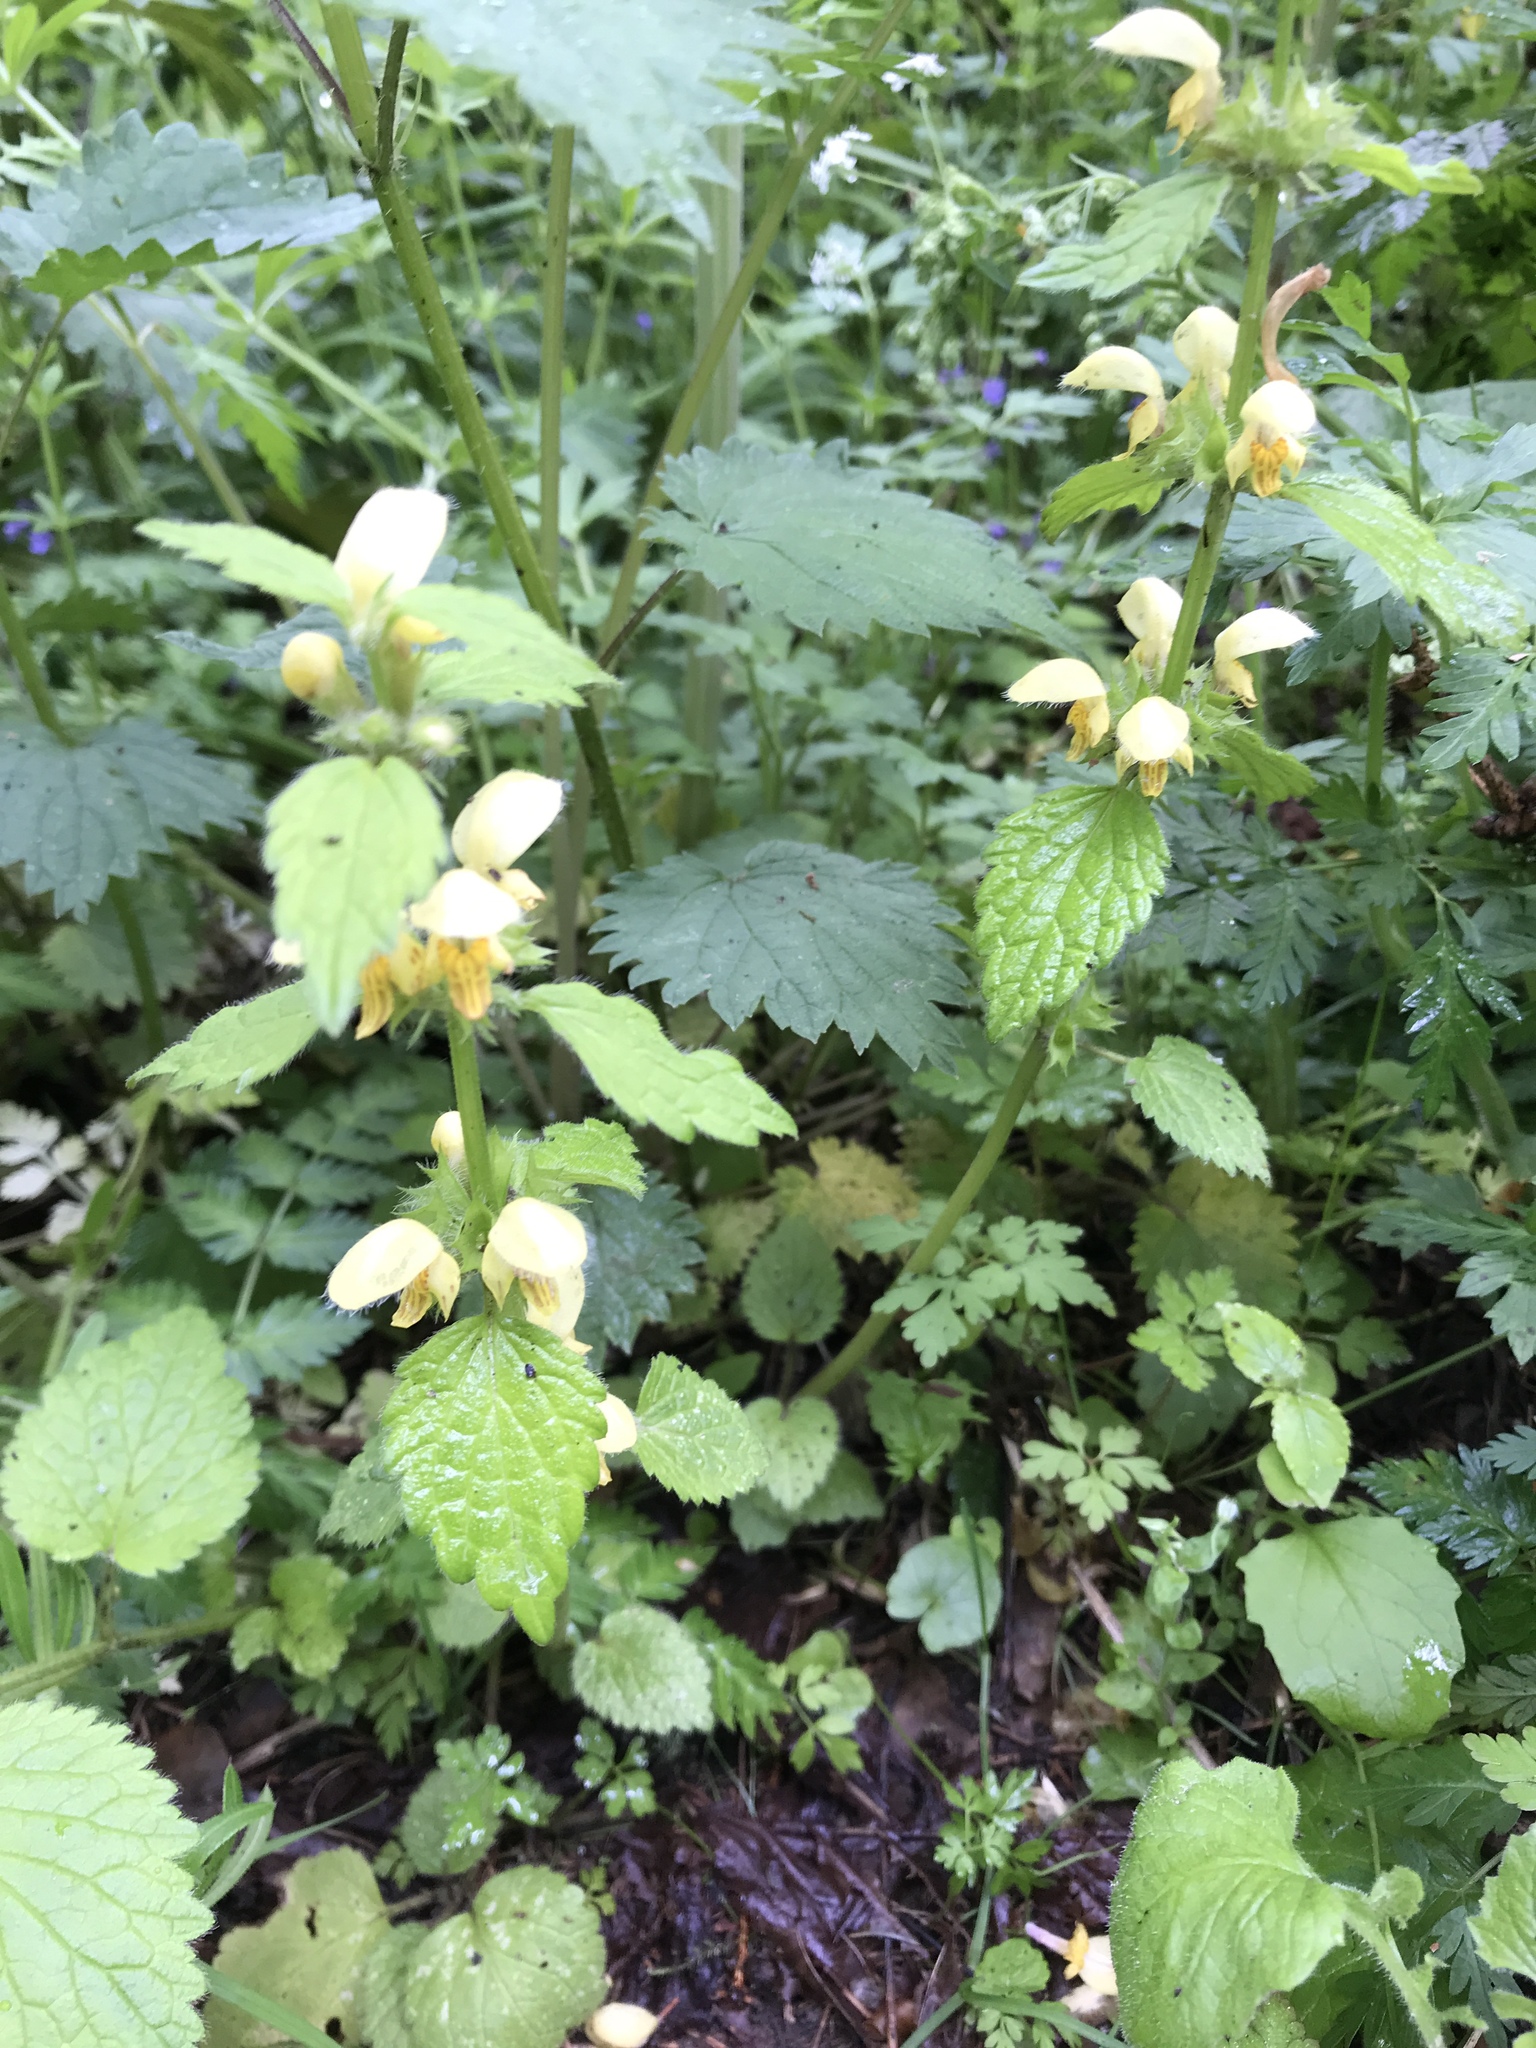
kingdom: Plantae
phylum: Tracheophyta
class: Magnoliopsida
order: Lamiales
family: Lamiaceae
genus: Lamium
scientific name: Lamium galeobdolon
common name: Yellow archangel
